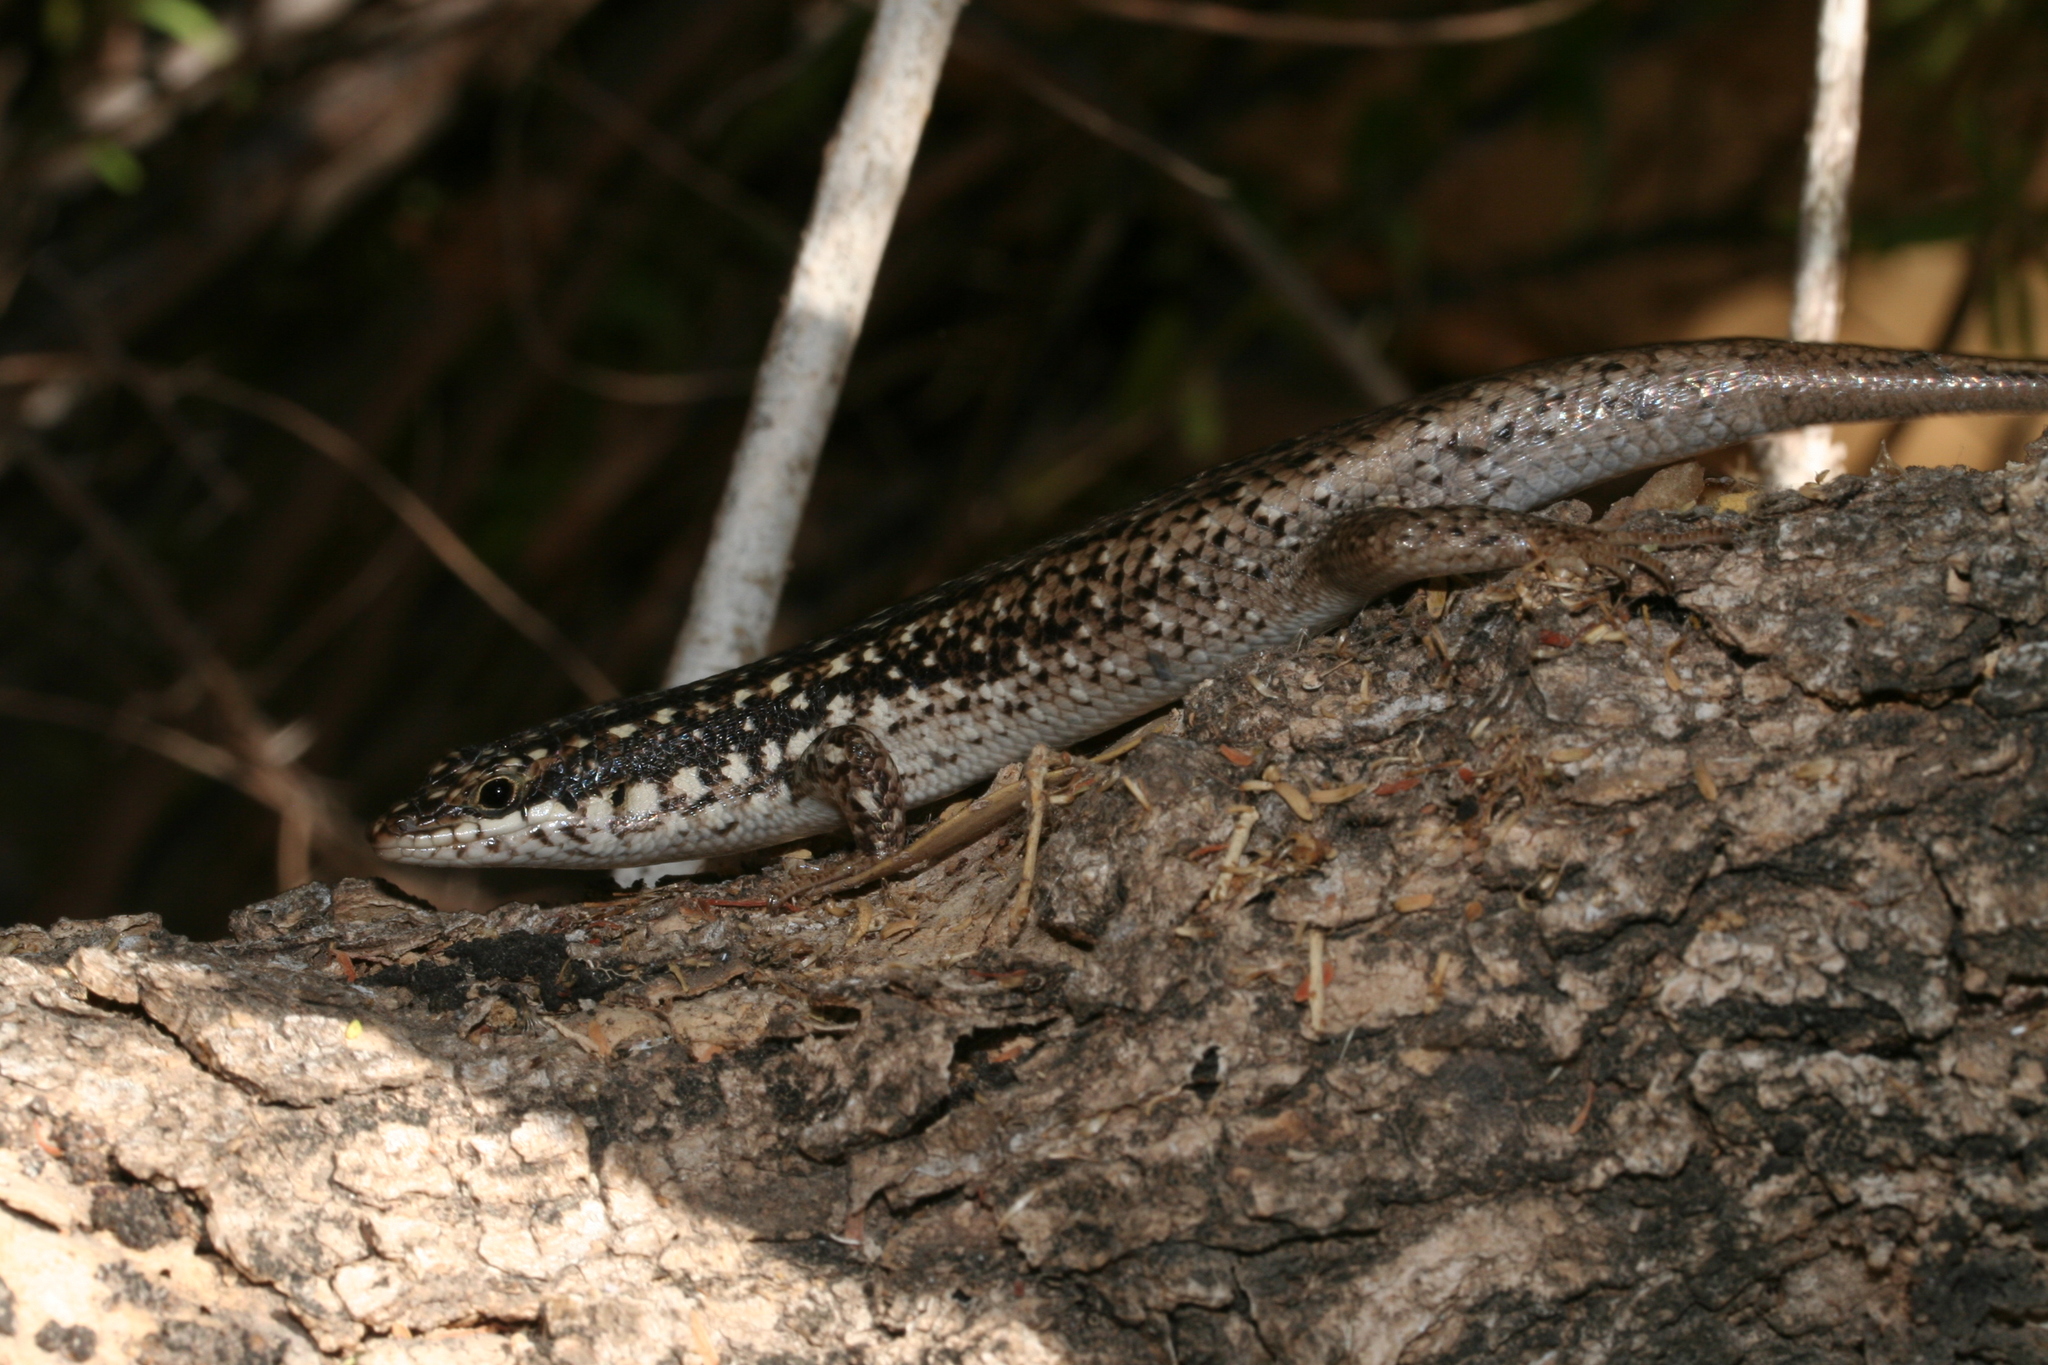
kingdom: Animalia
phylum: Chordata
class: Squamata
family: Scincidae
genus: Trachylepis
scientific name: Trachylepis aureopunctata
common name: Gold-spotted mabuya
